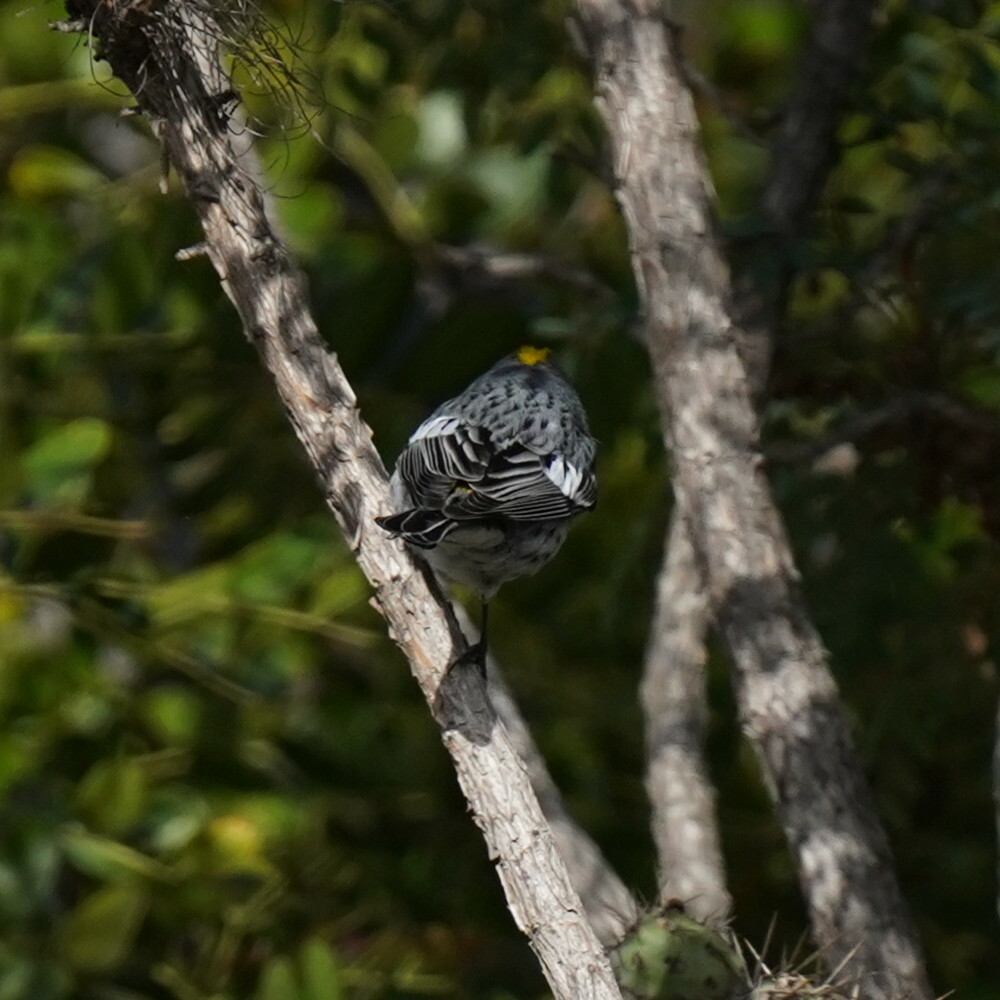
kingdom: Animalia
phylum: Chordata
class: Aves
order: Passeriformes
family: Parulidae
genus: Setophaga
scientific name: Setophaga auduboni
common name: Audubon's warbler
